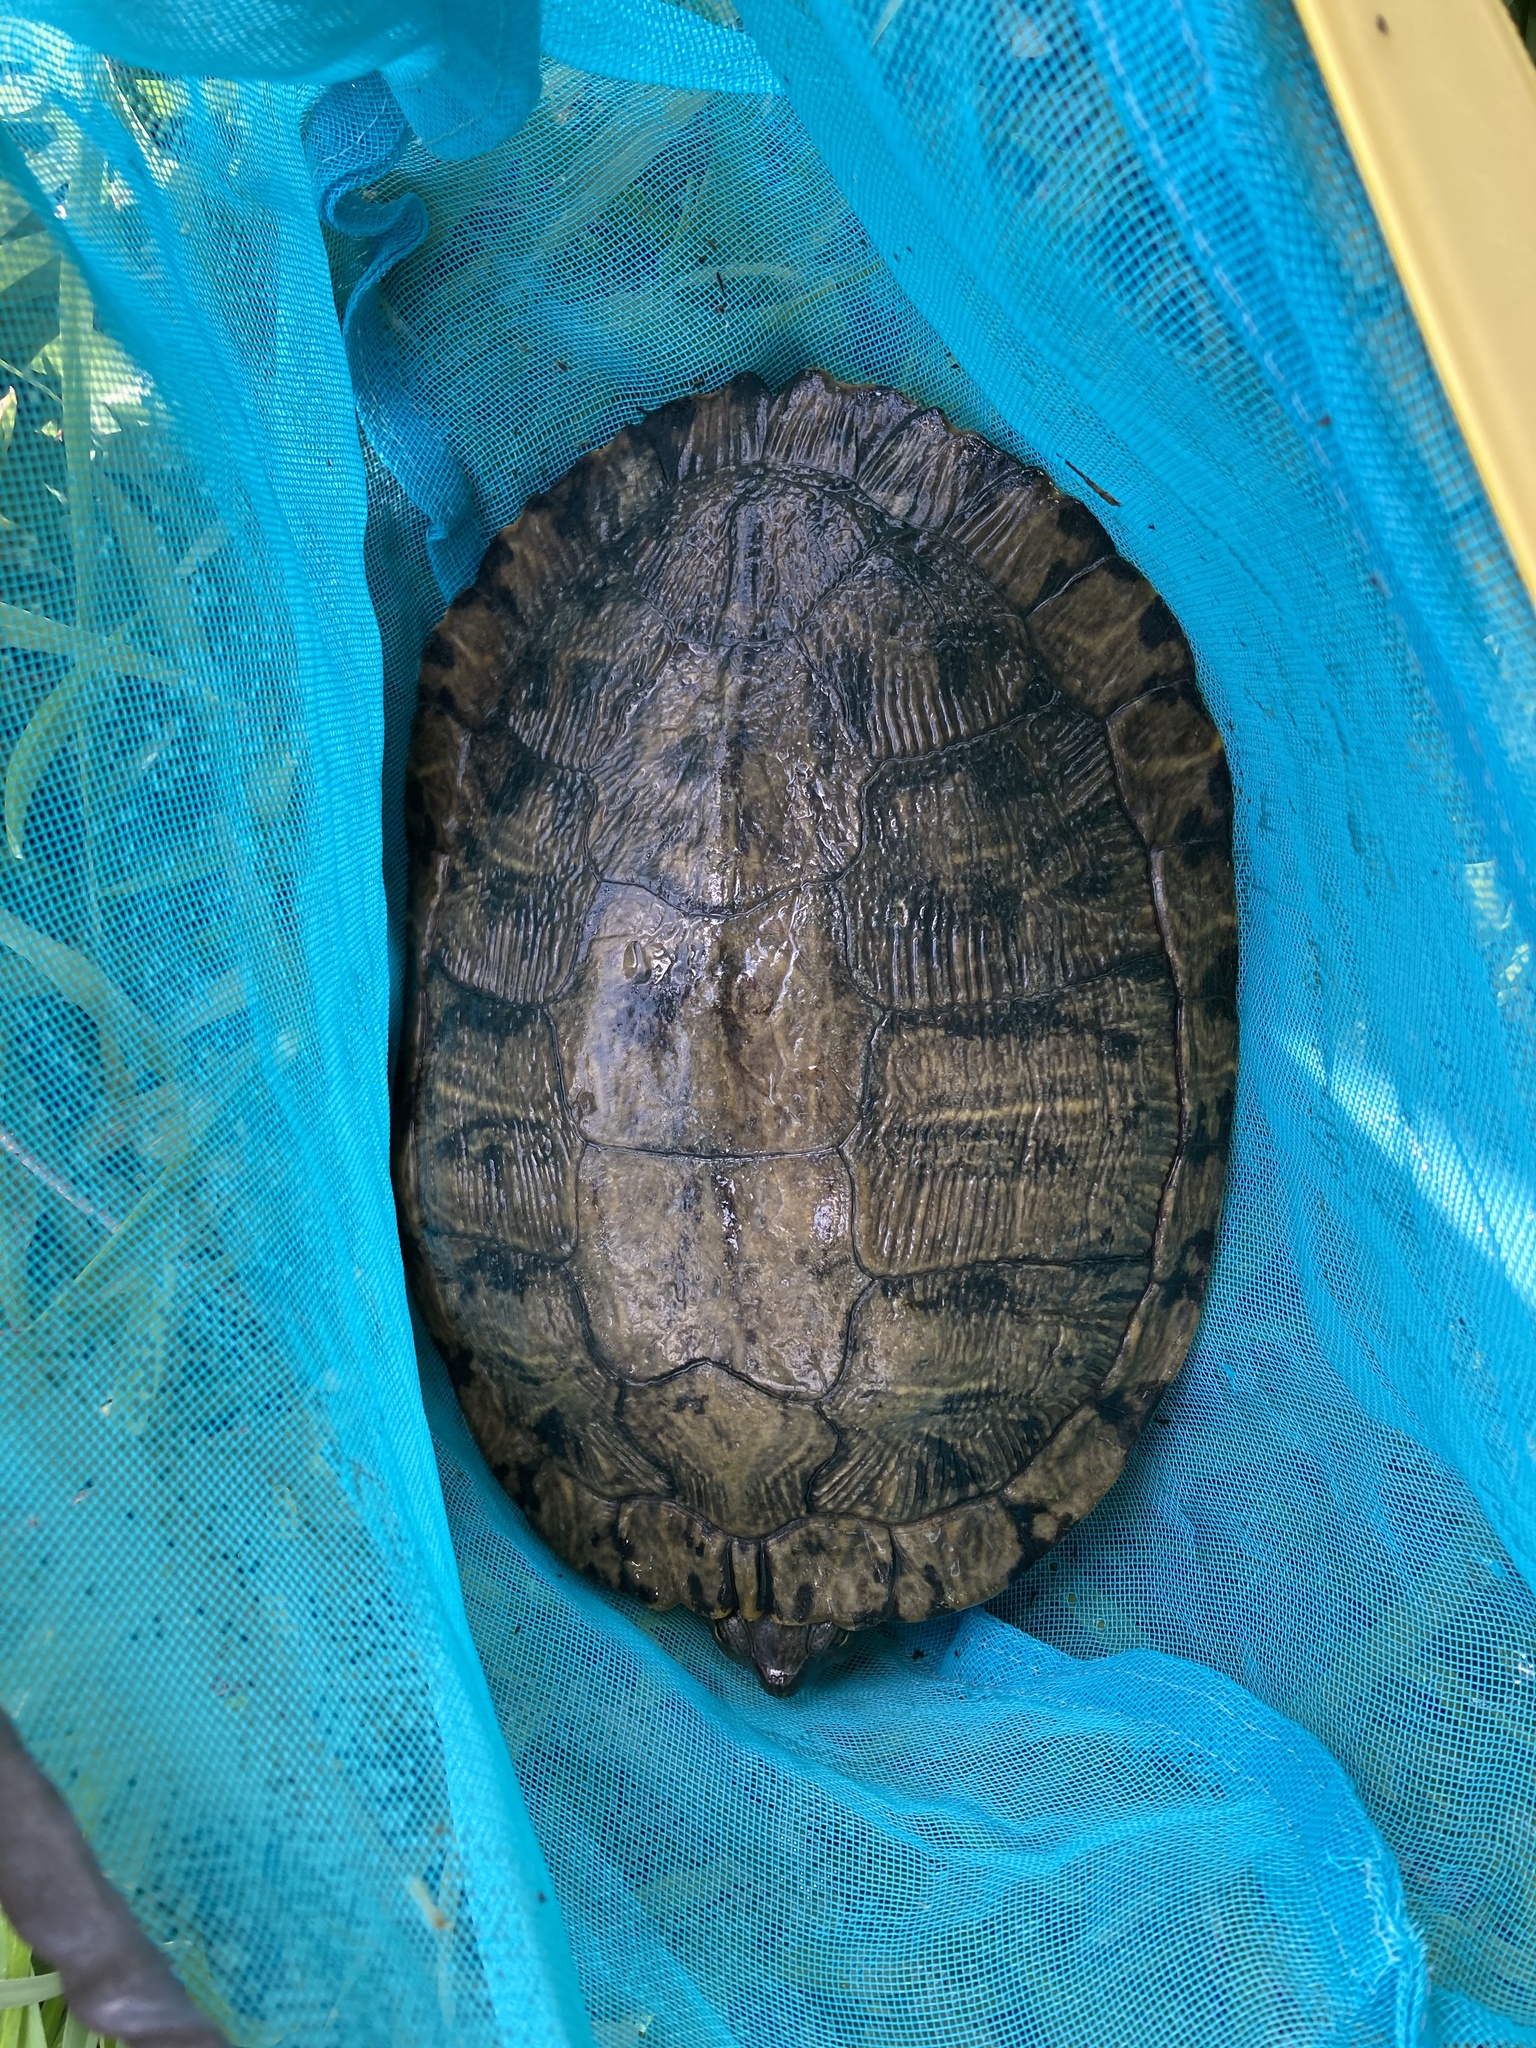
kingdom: Animalia
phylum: Chordata
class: Testudines
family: Emydidae
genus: Trachemys
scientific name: Trachemys scripta
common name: Slider
